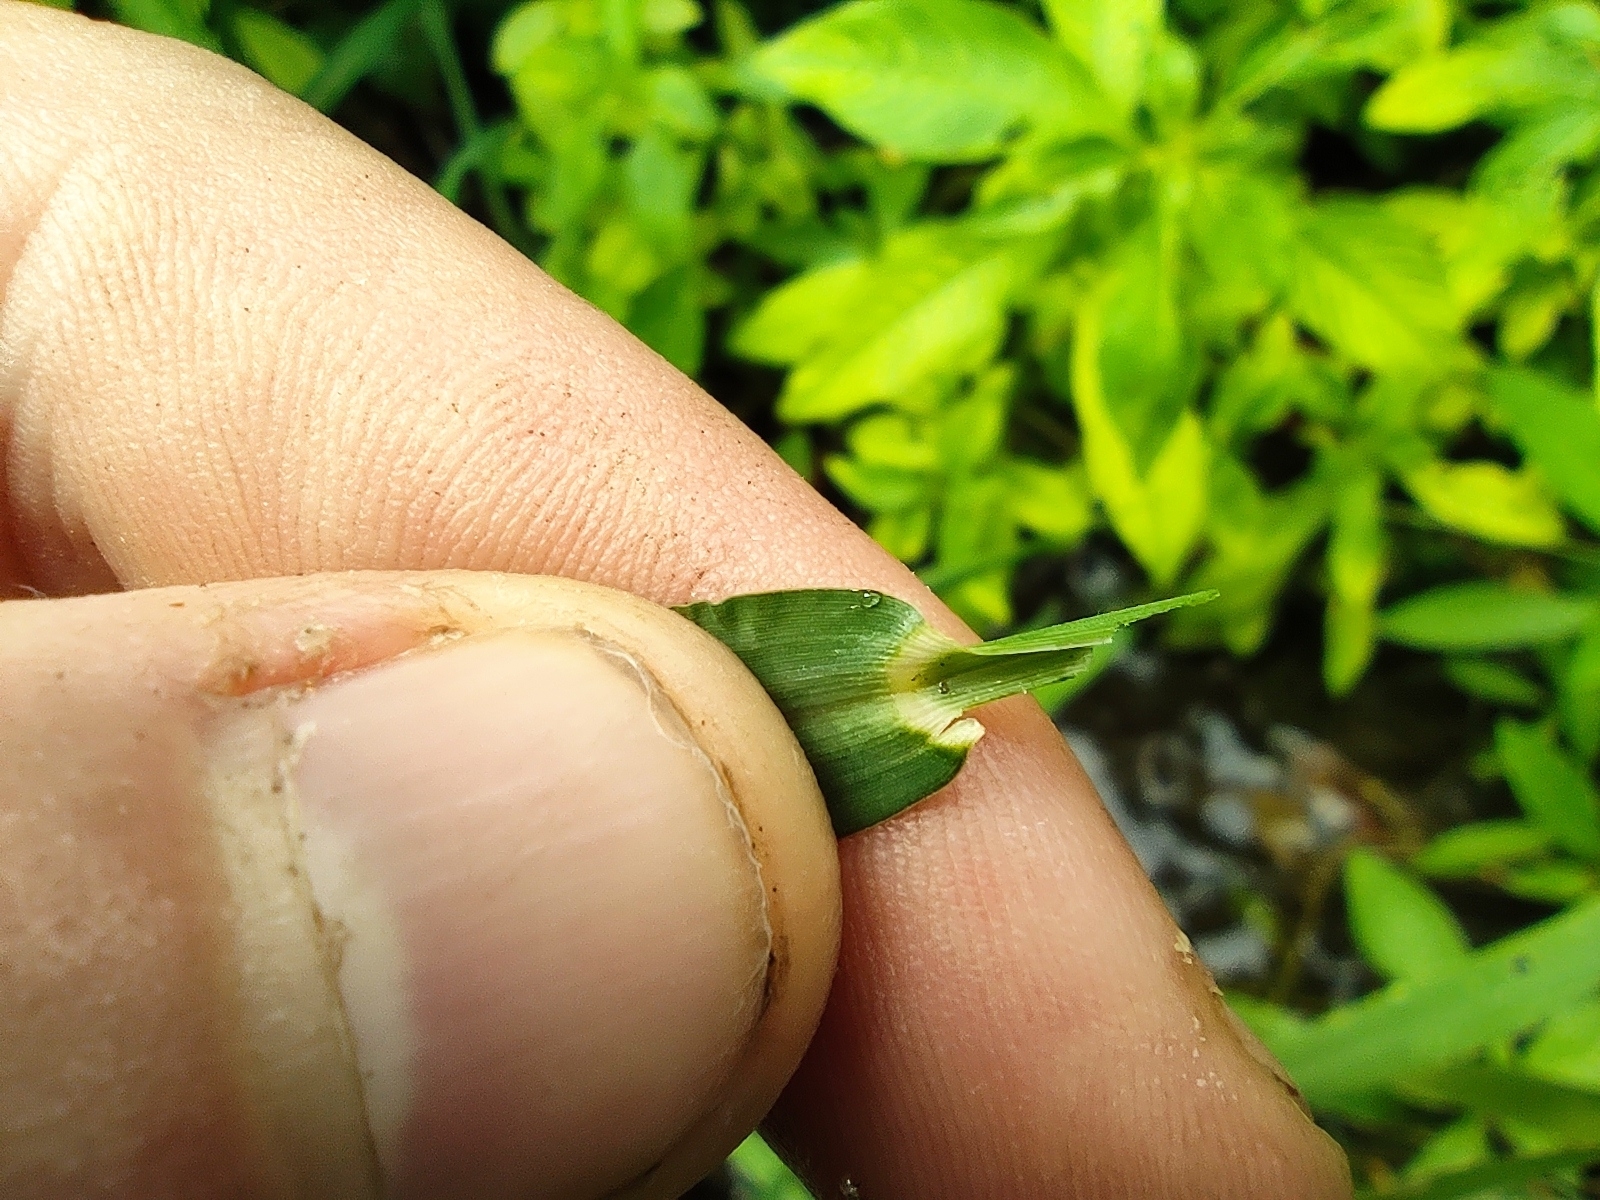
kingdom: Plantae
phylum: Tracheophyta
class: Liliopsida
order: Poales
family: Poaceae
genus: Echinochloa
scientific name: Echinochloa colonum
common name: Jungle rice
